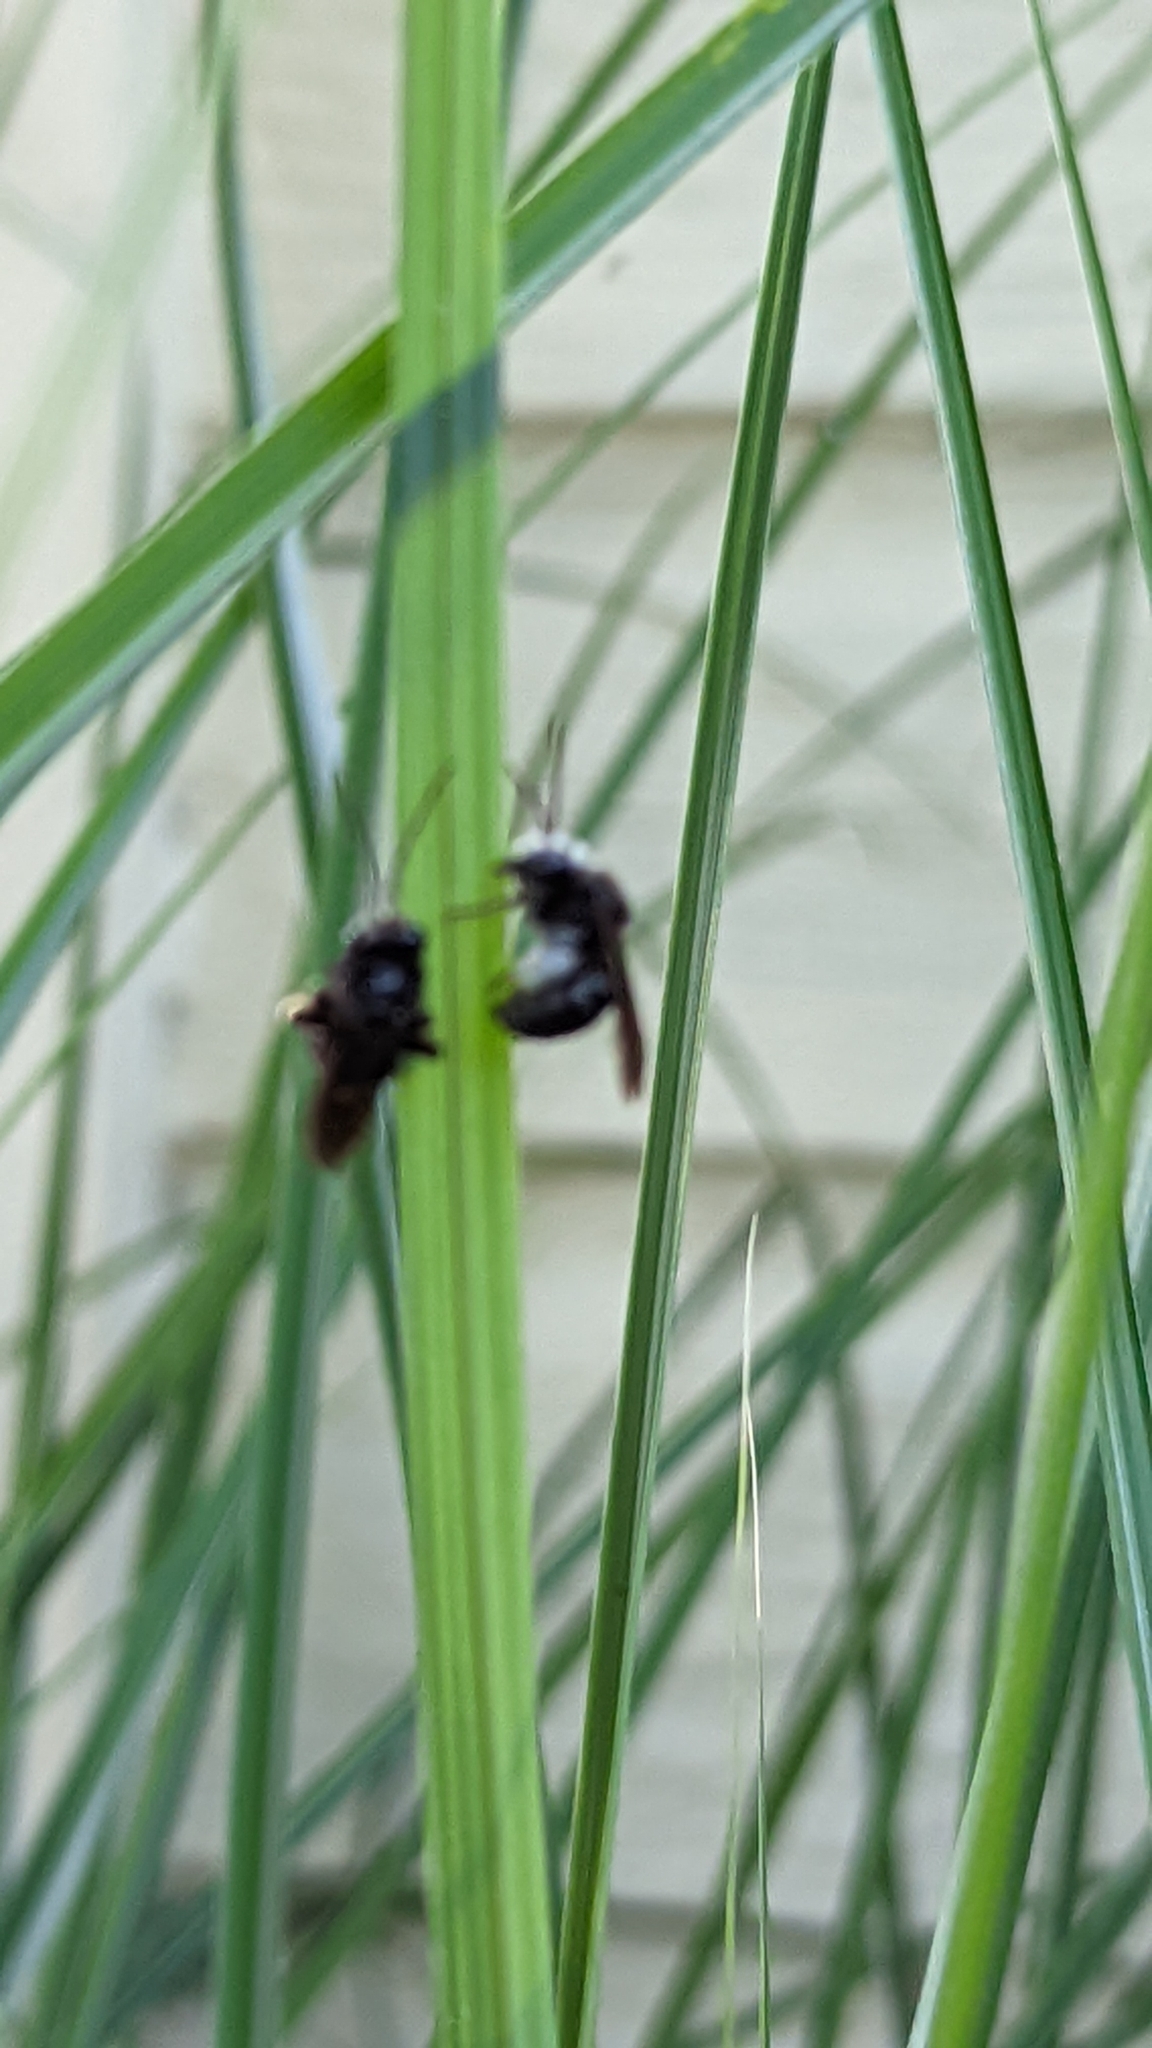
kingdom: Animalia
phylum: Arthropoda
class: Insecta
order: Hymenoptera
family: Apidae
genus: Melissodes
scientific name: Melissodes bimaculatus
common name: Two-spotted long-horned bee
